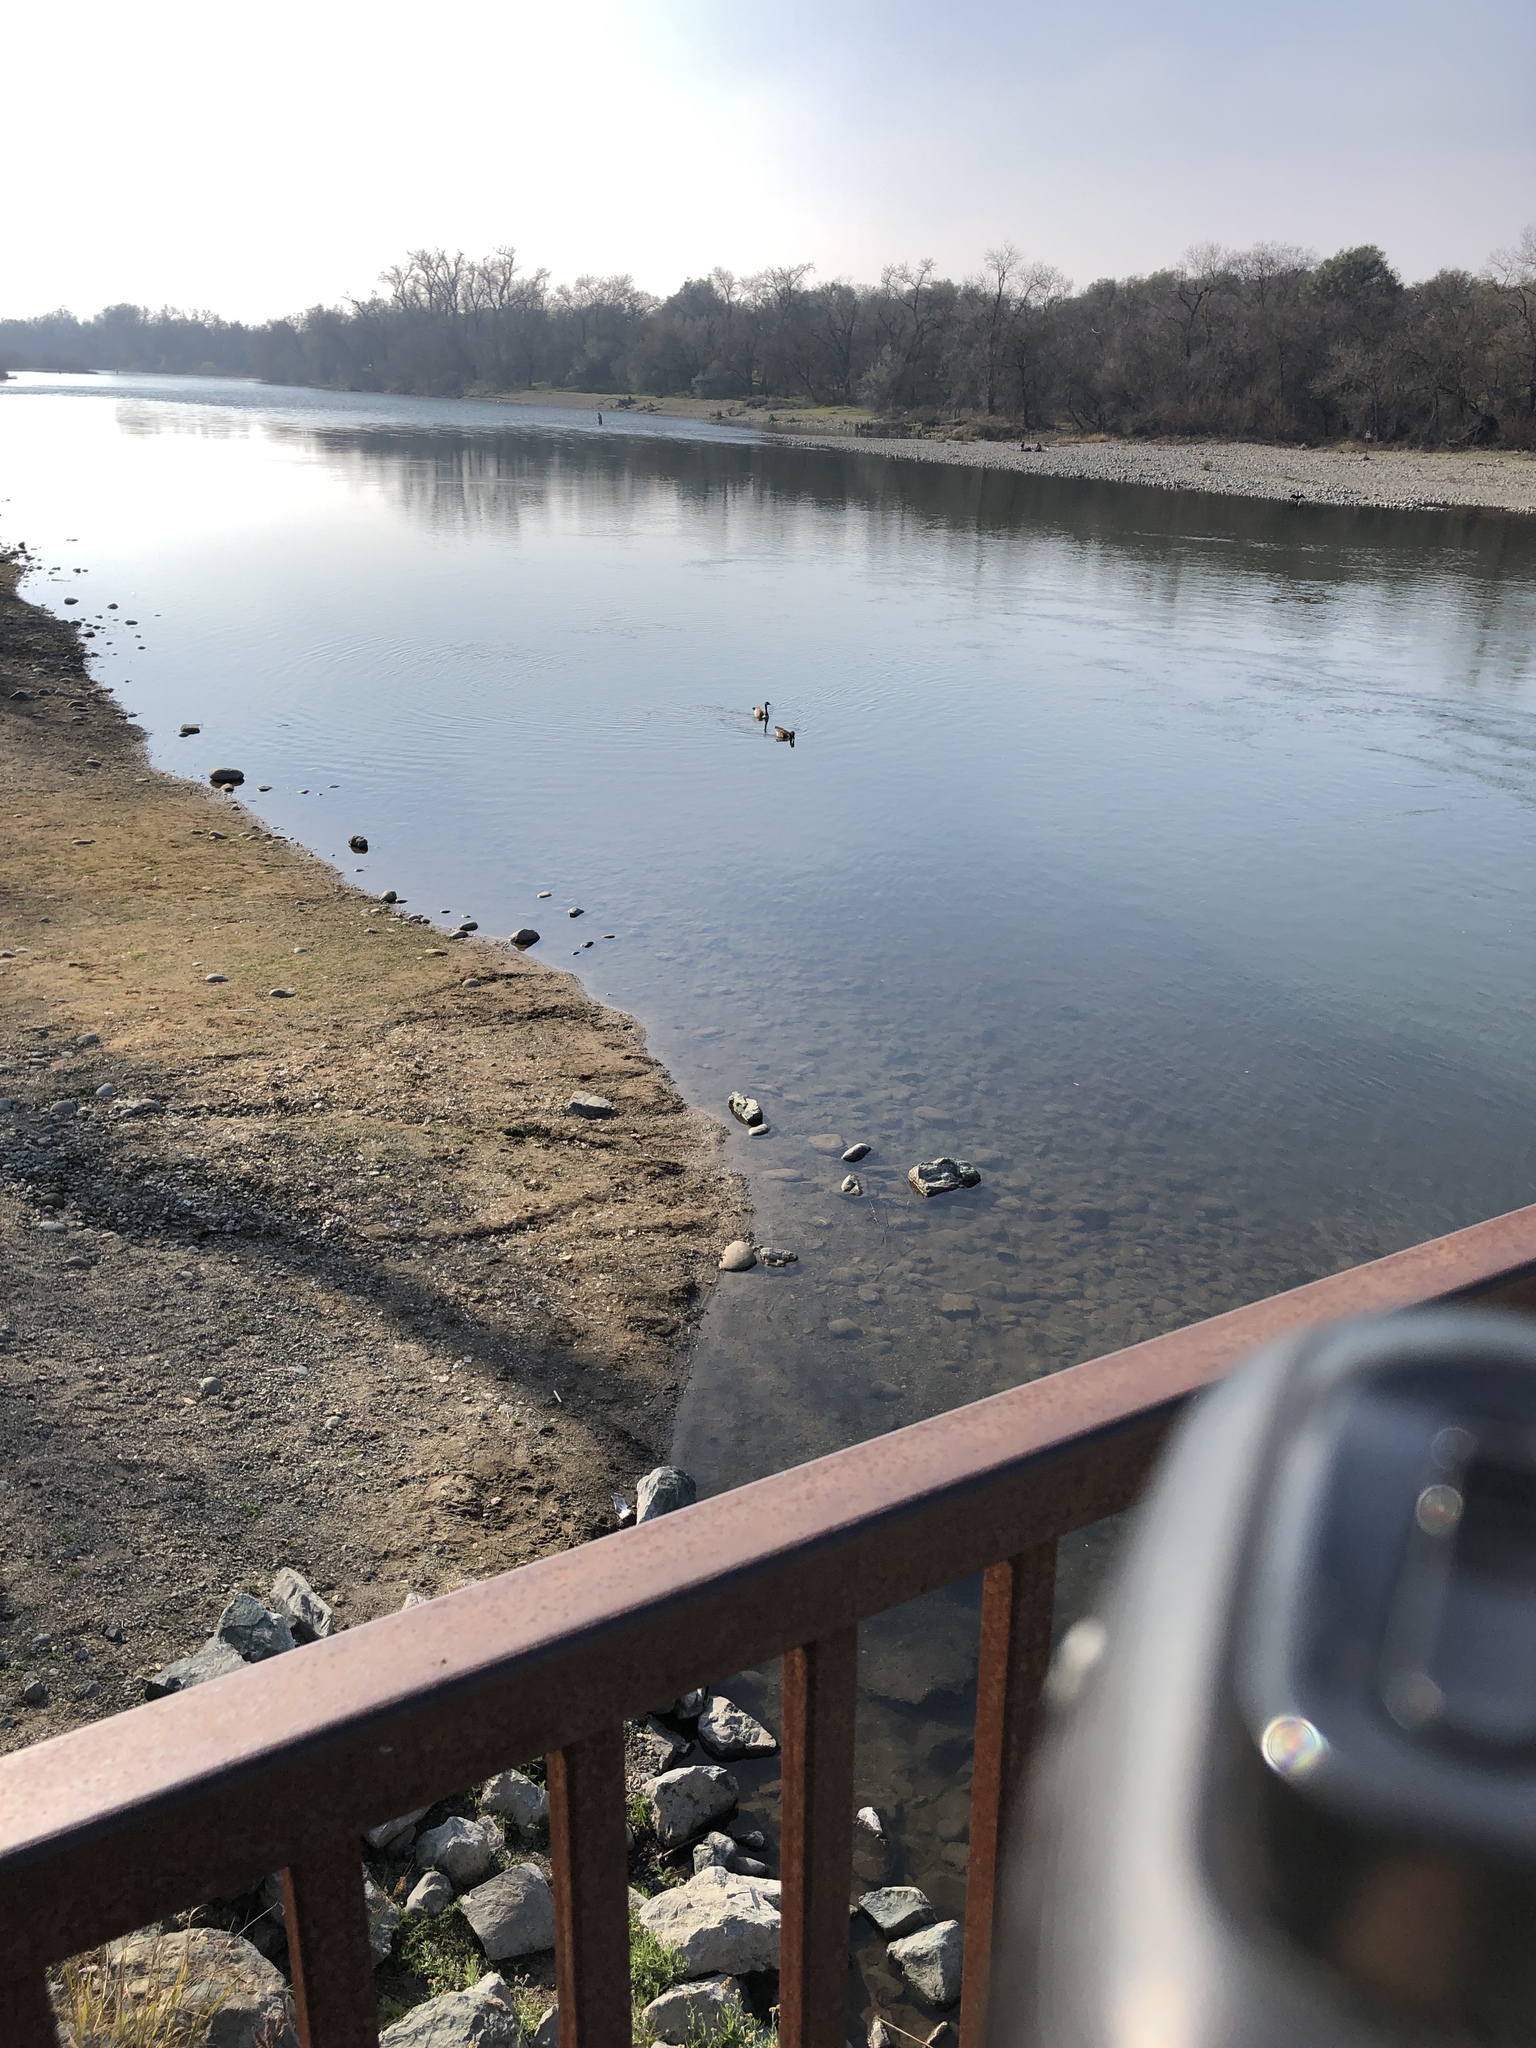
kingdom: Animalia
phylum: Chordata
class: Aves
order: Anseriformes
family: Anatidae
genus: Branta
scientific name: Branta canadensis
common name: Canada goose
